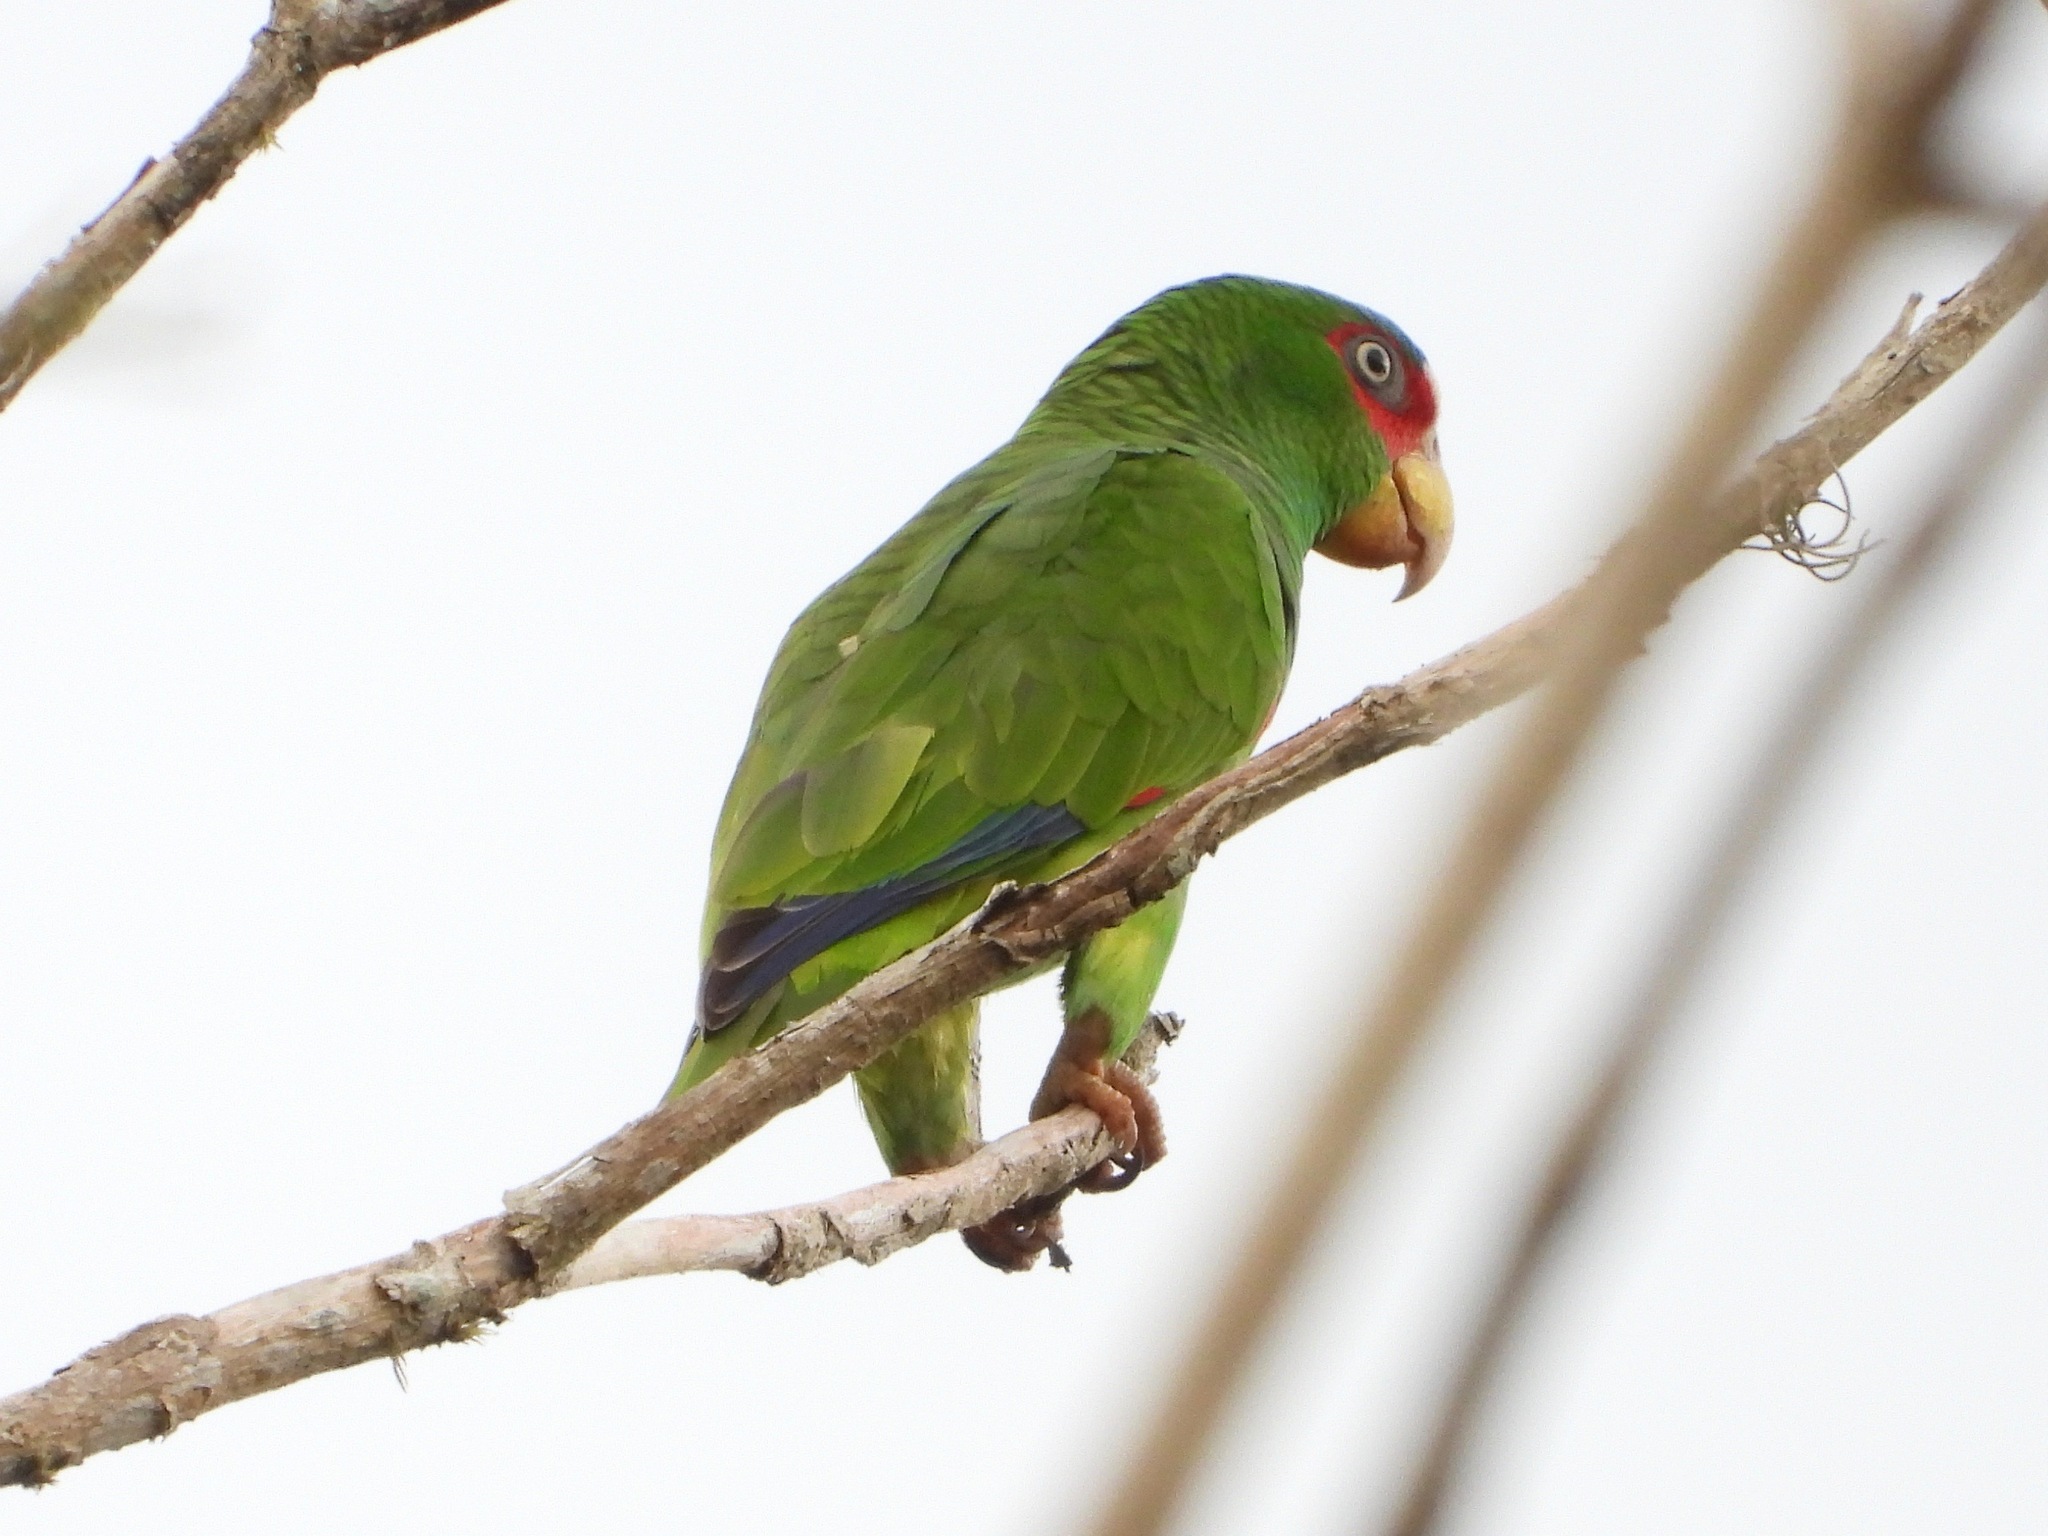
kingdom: Animalia
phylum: Chordata
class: Aves
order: Psittaciformes
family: Psittacidae
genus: Amazona
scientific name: Amazona albifrons
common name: White-fronted amazon
